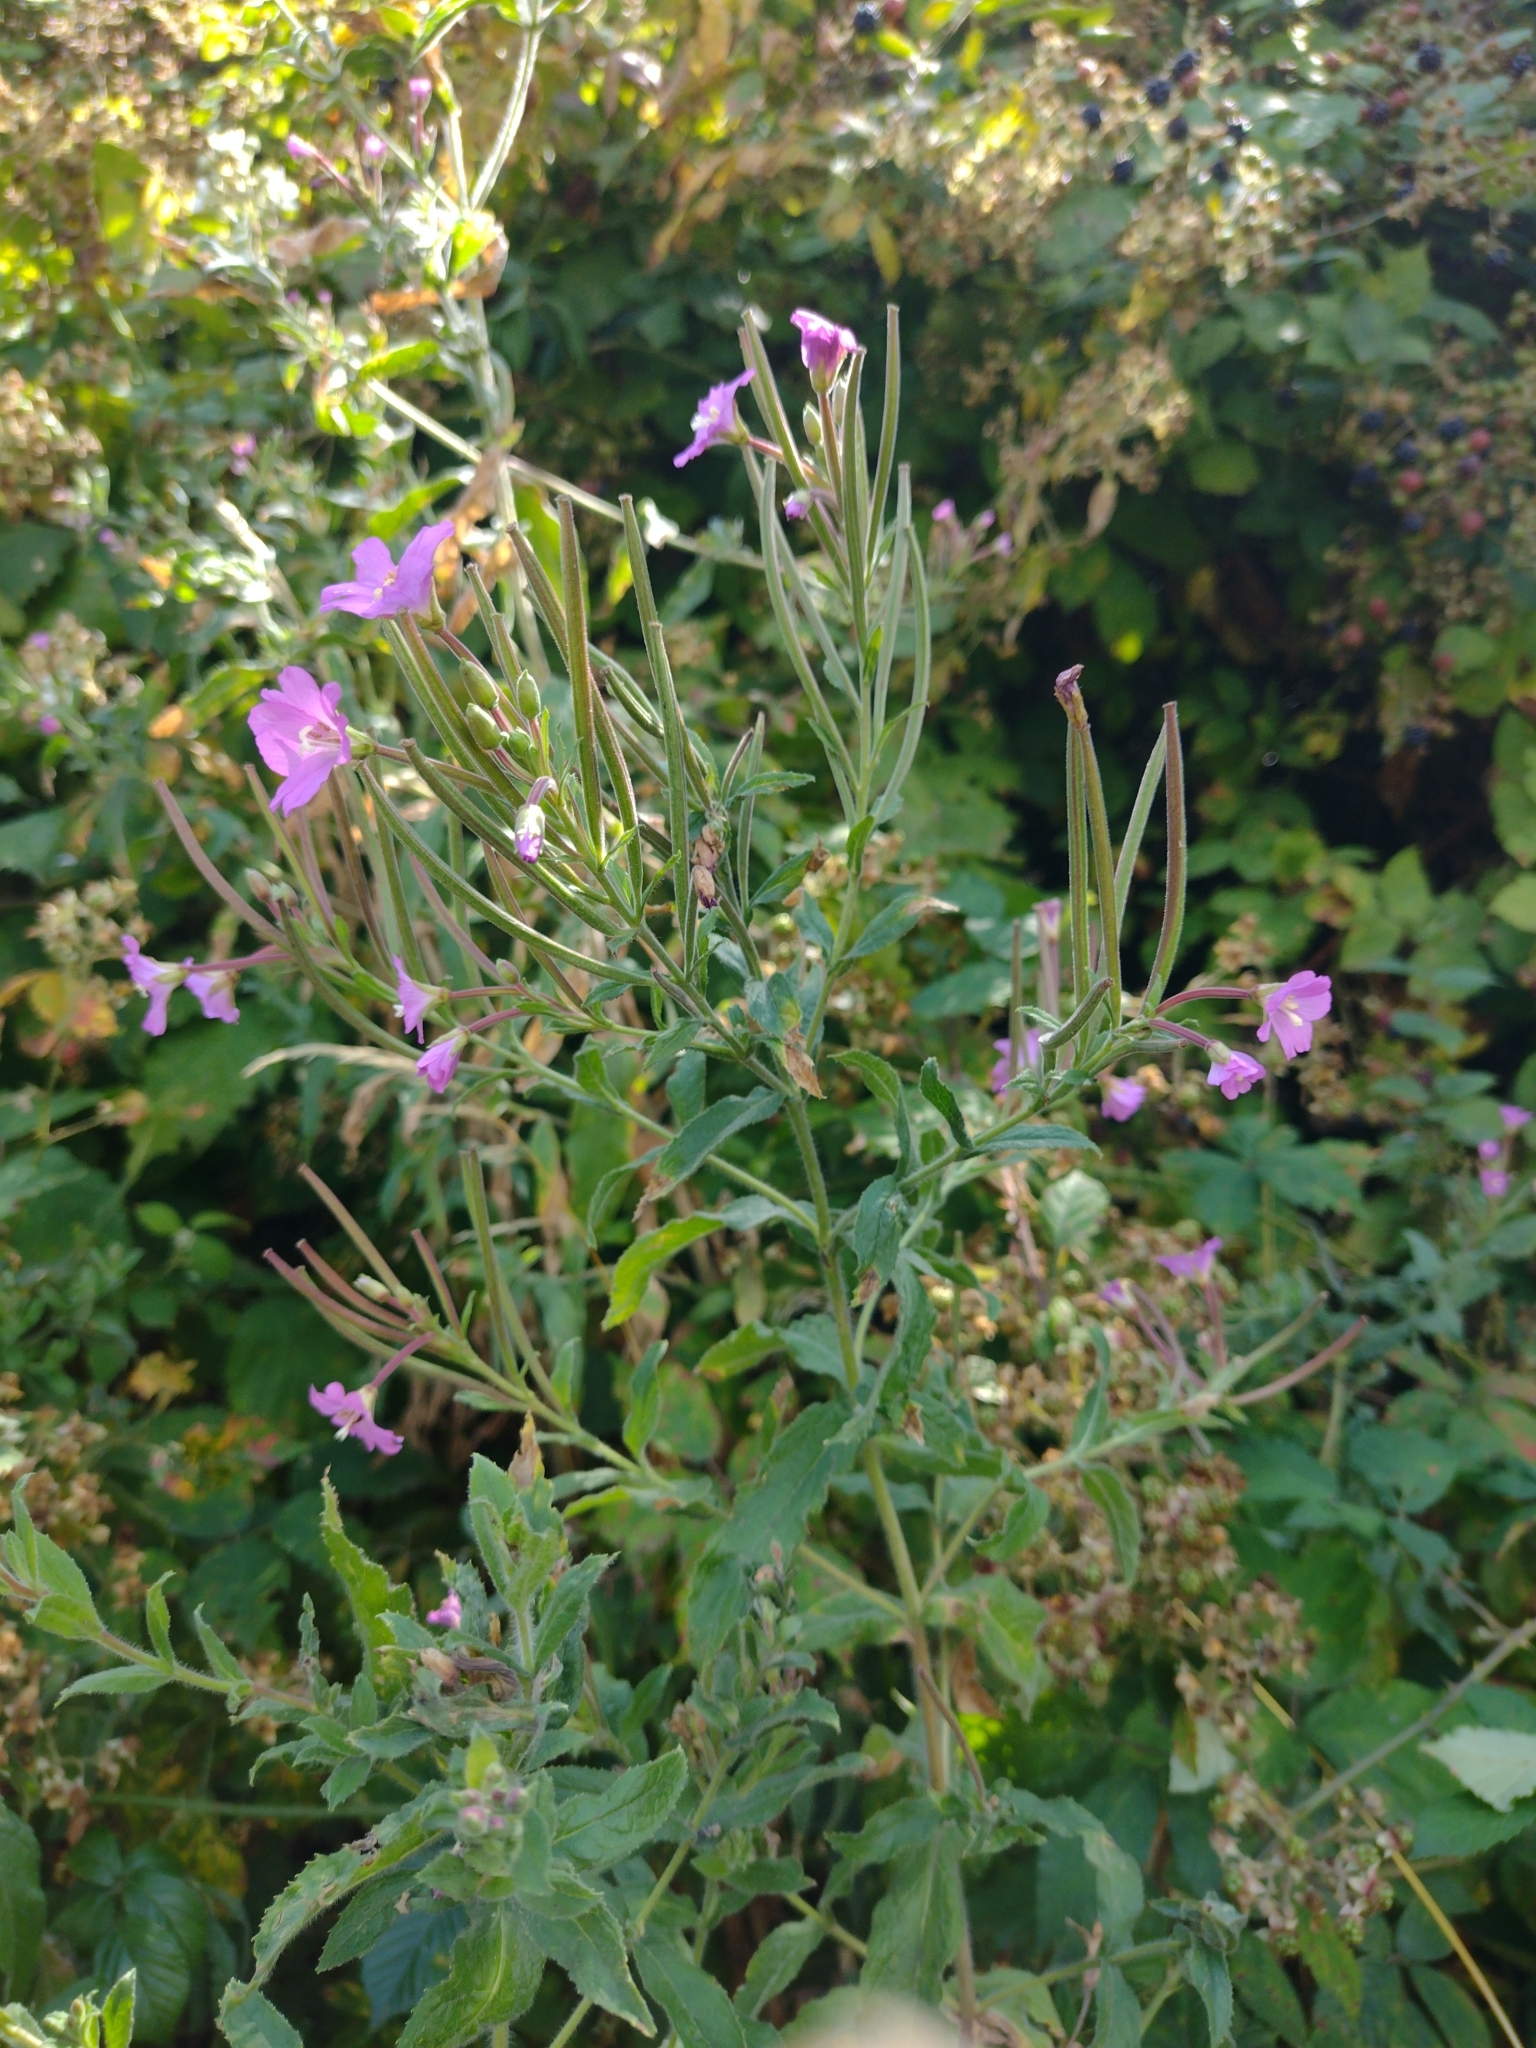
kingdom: Plantae
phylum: Tracheophyta
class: Magnoliopsida
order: Myrtales
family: Onagraceae
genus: Epilobium
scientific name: Epilobium hirsutum
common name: Great willowherb
